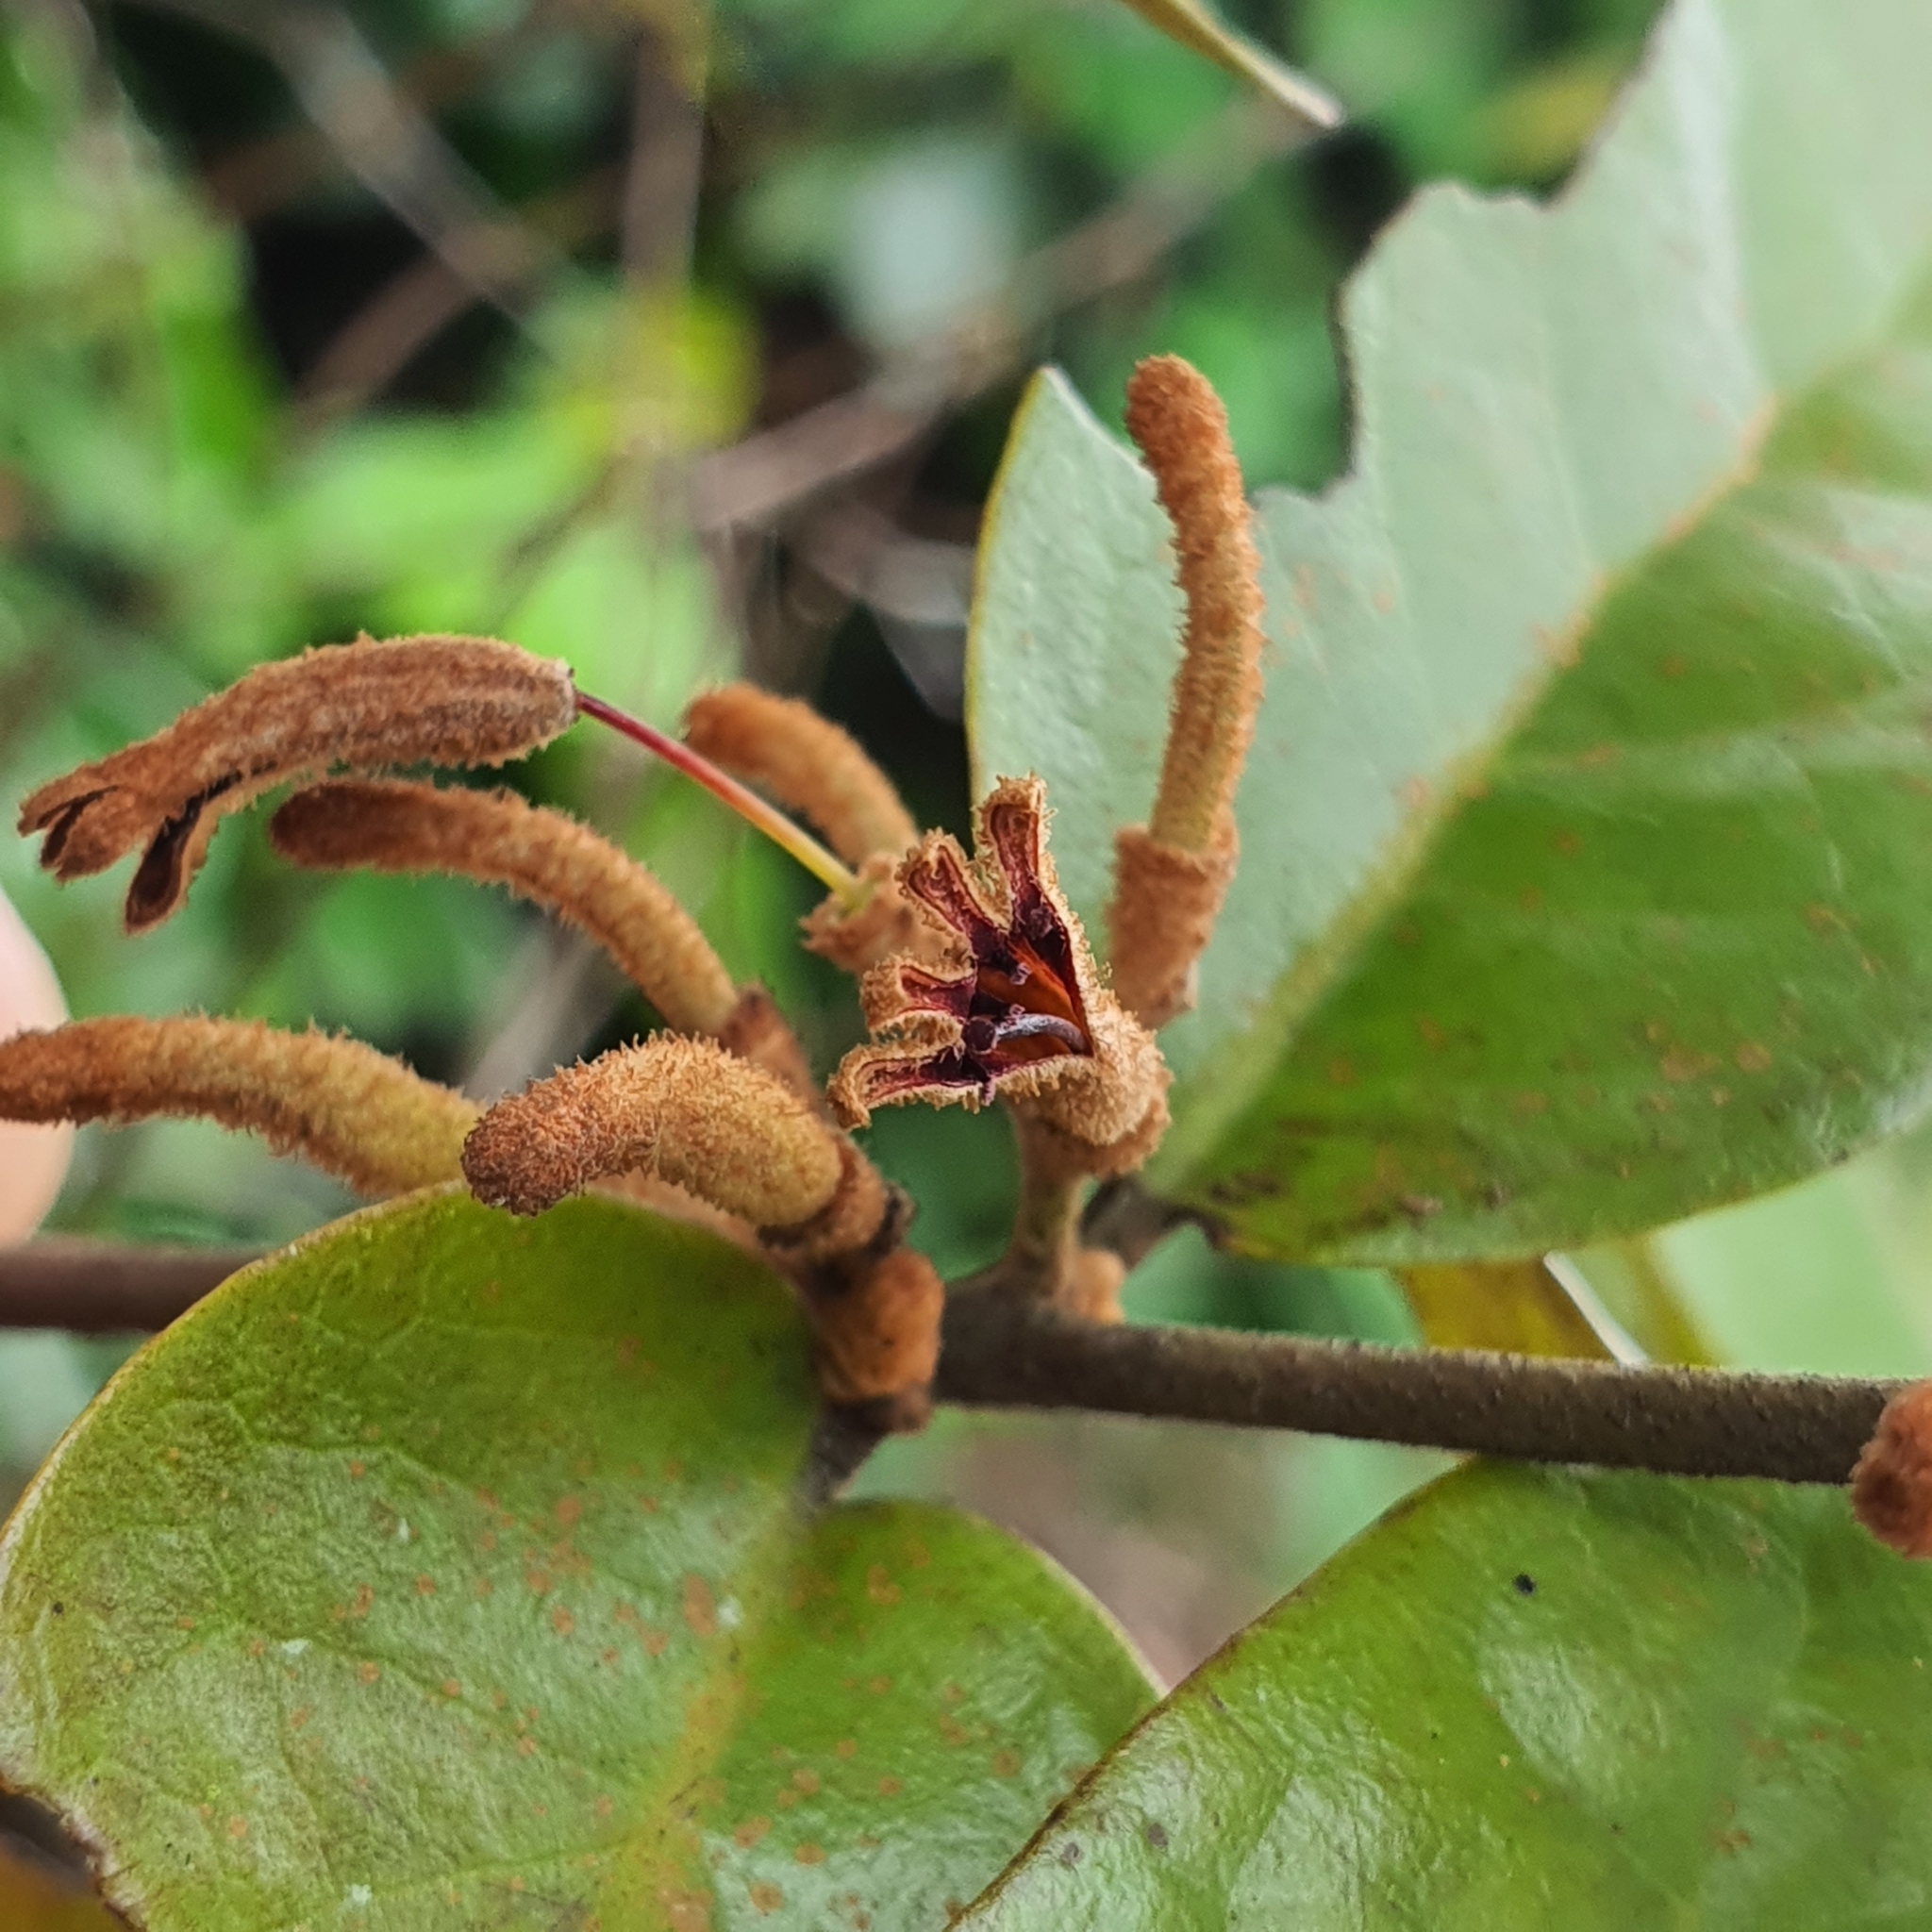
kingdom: Plantae
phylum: Tracheophyta
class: Magnoliopsida
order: Santalales
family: Loranthaceae
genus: Scurrula
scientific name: Scurrula ferruginea
